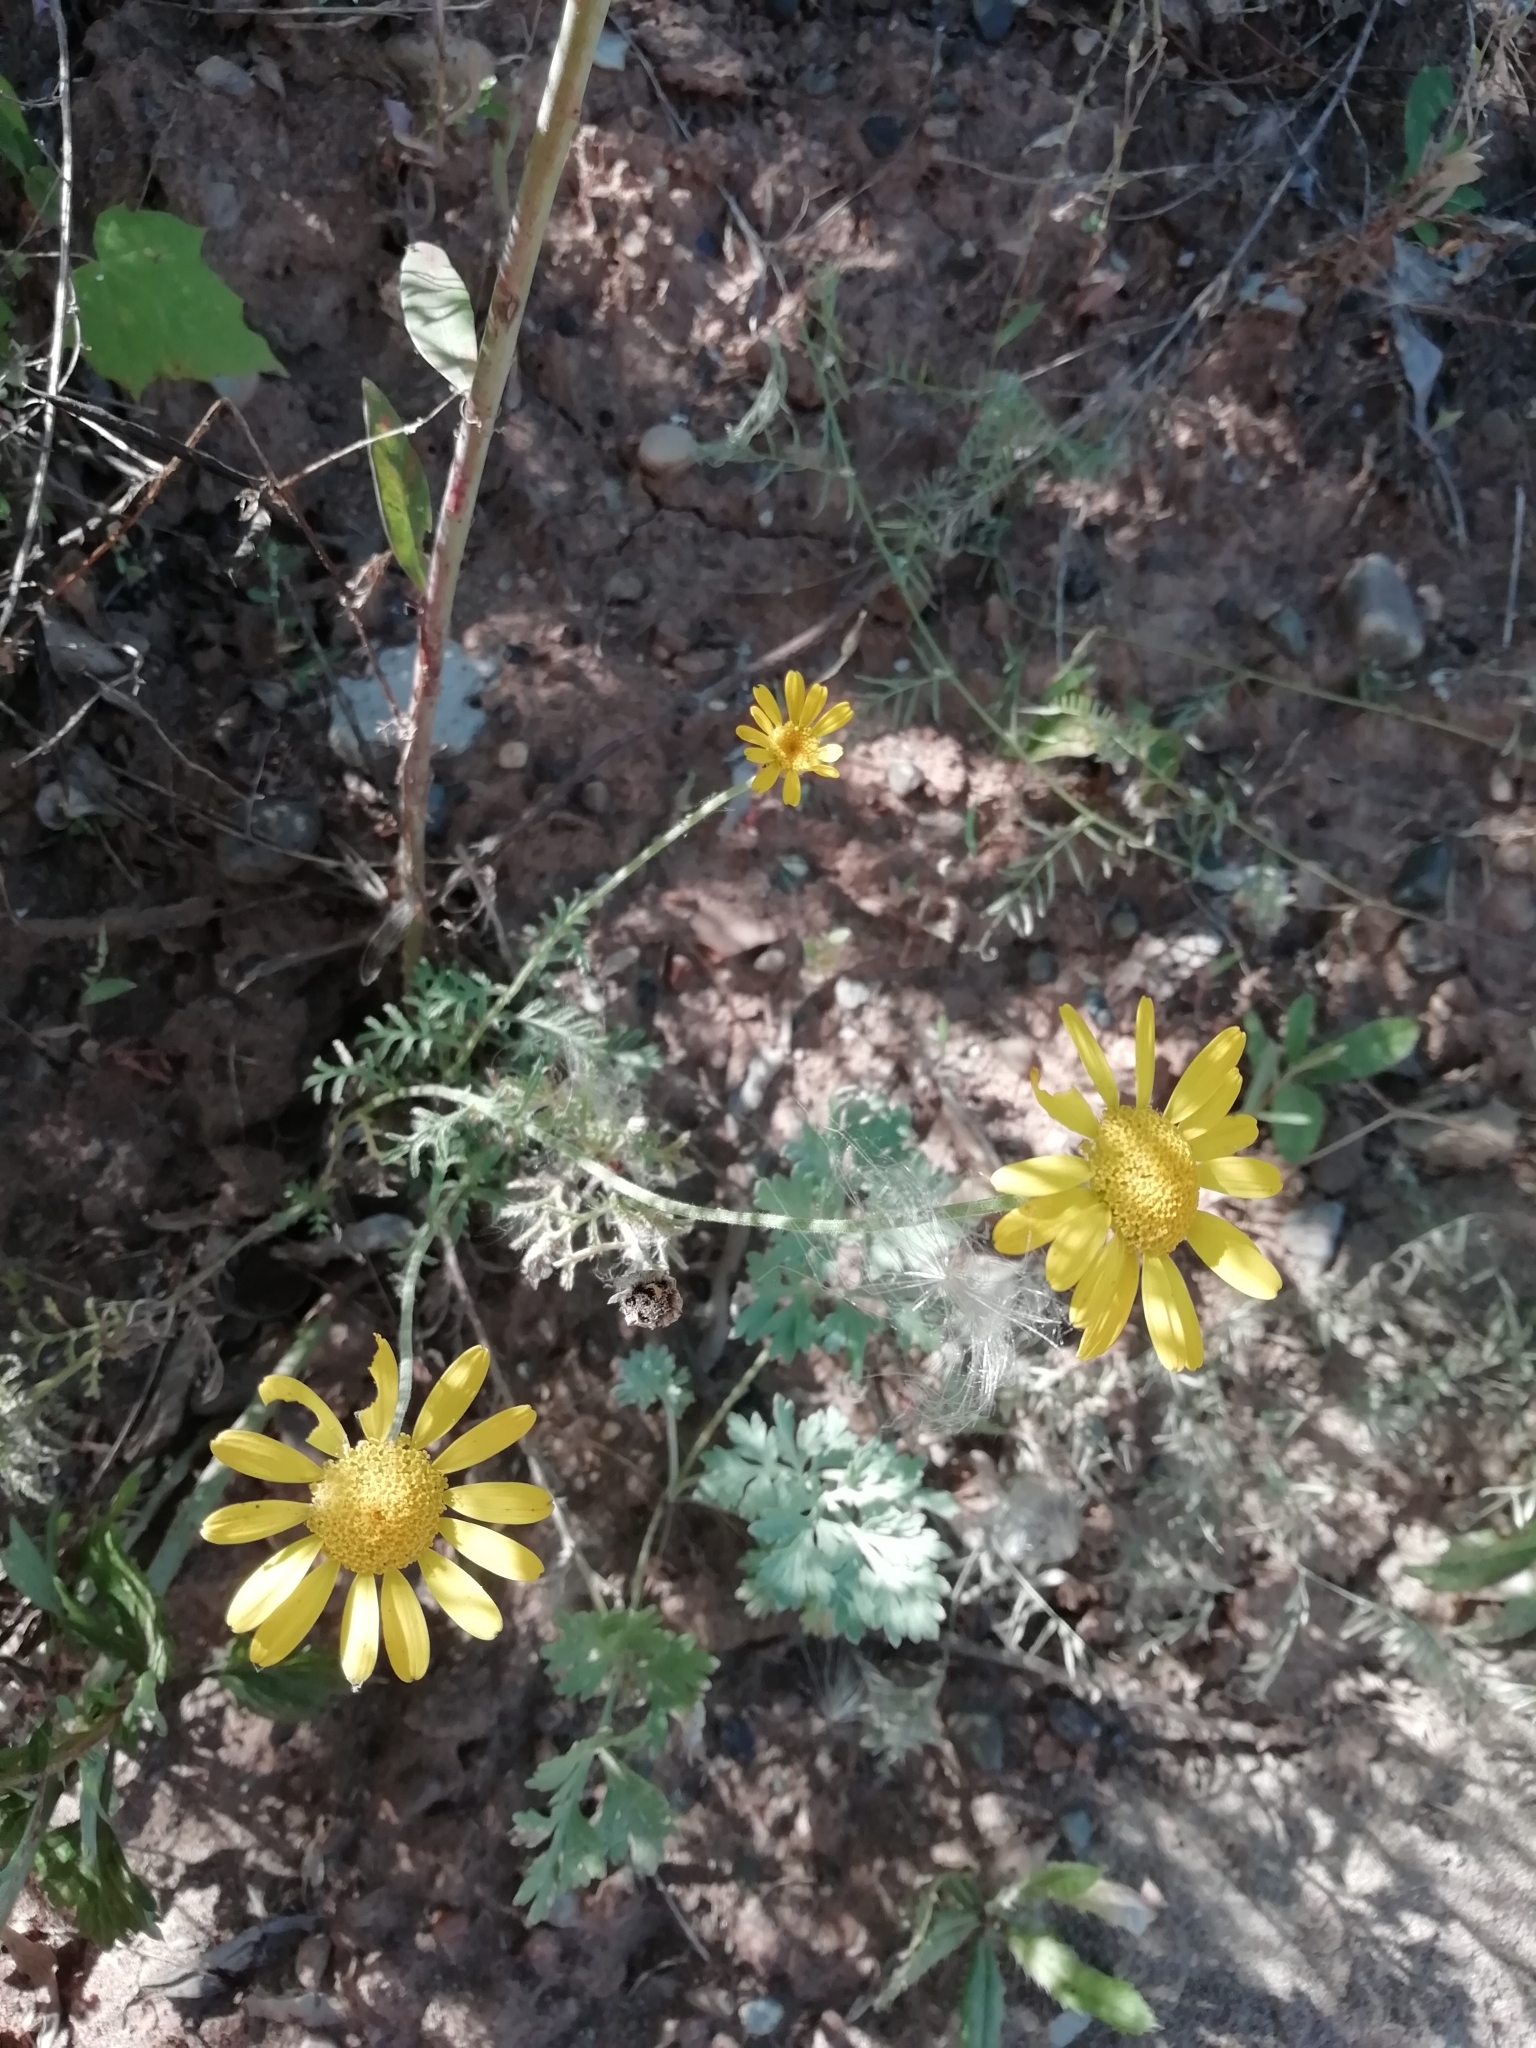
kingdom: Plantae
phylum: Tracheophyta
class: Magnoliopsida
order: Asterales
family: Asteraceae
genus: Cota
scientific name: Cota tinctoria
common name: Golden chamomile
